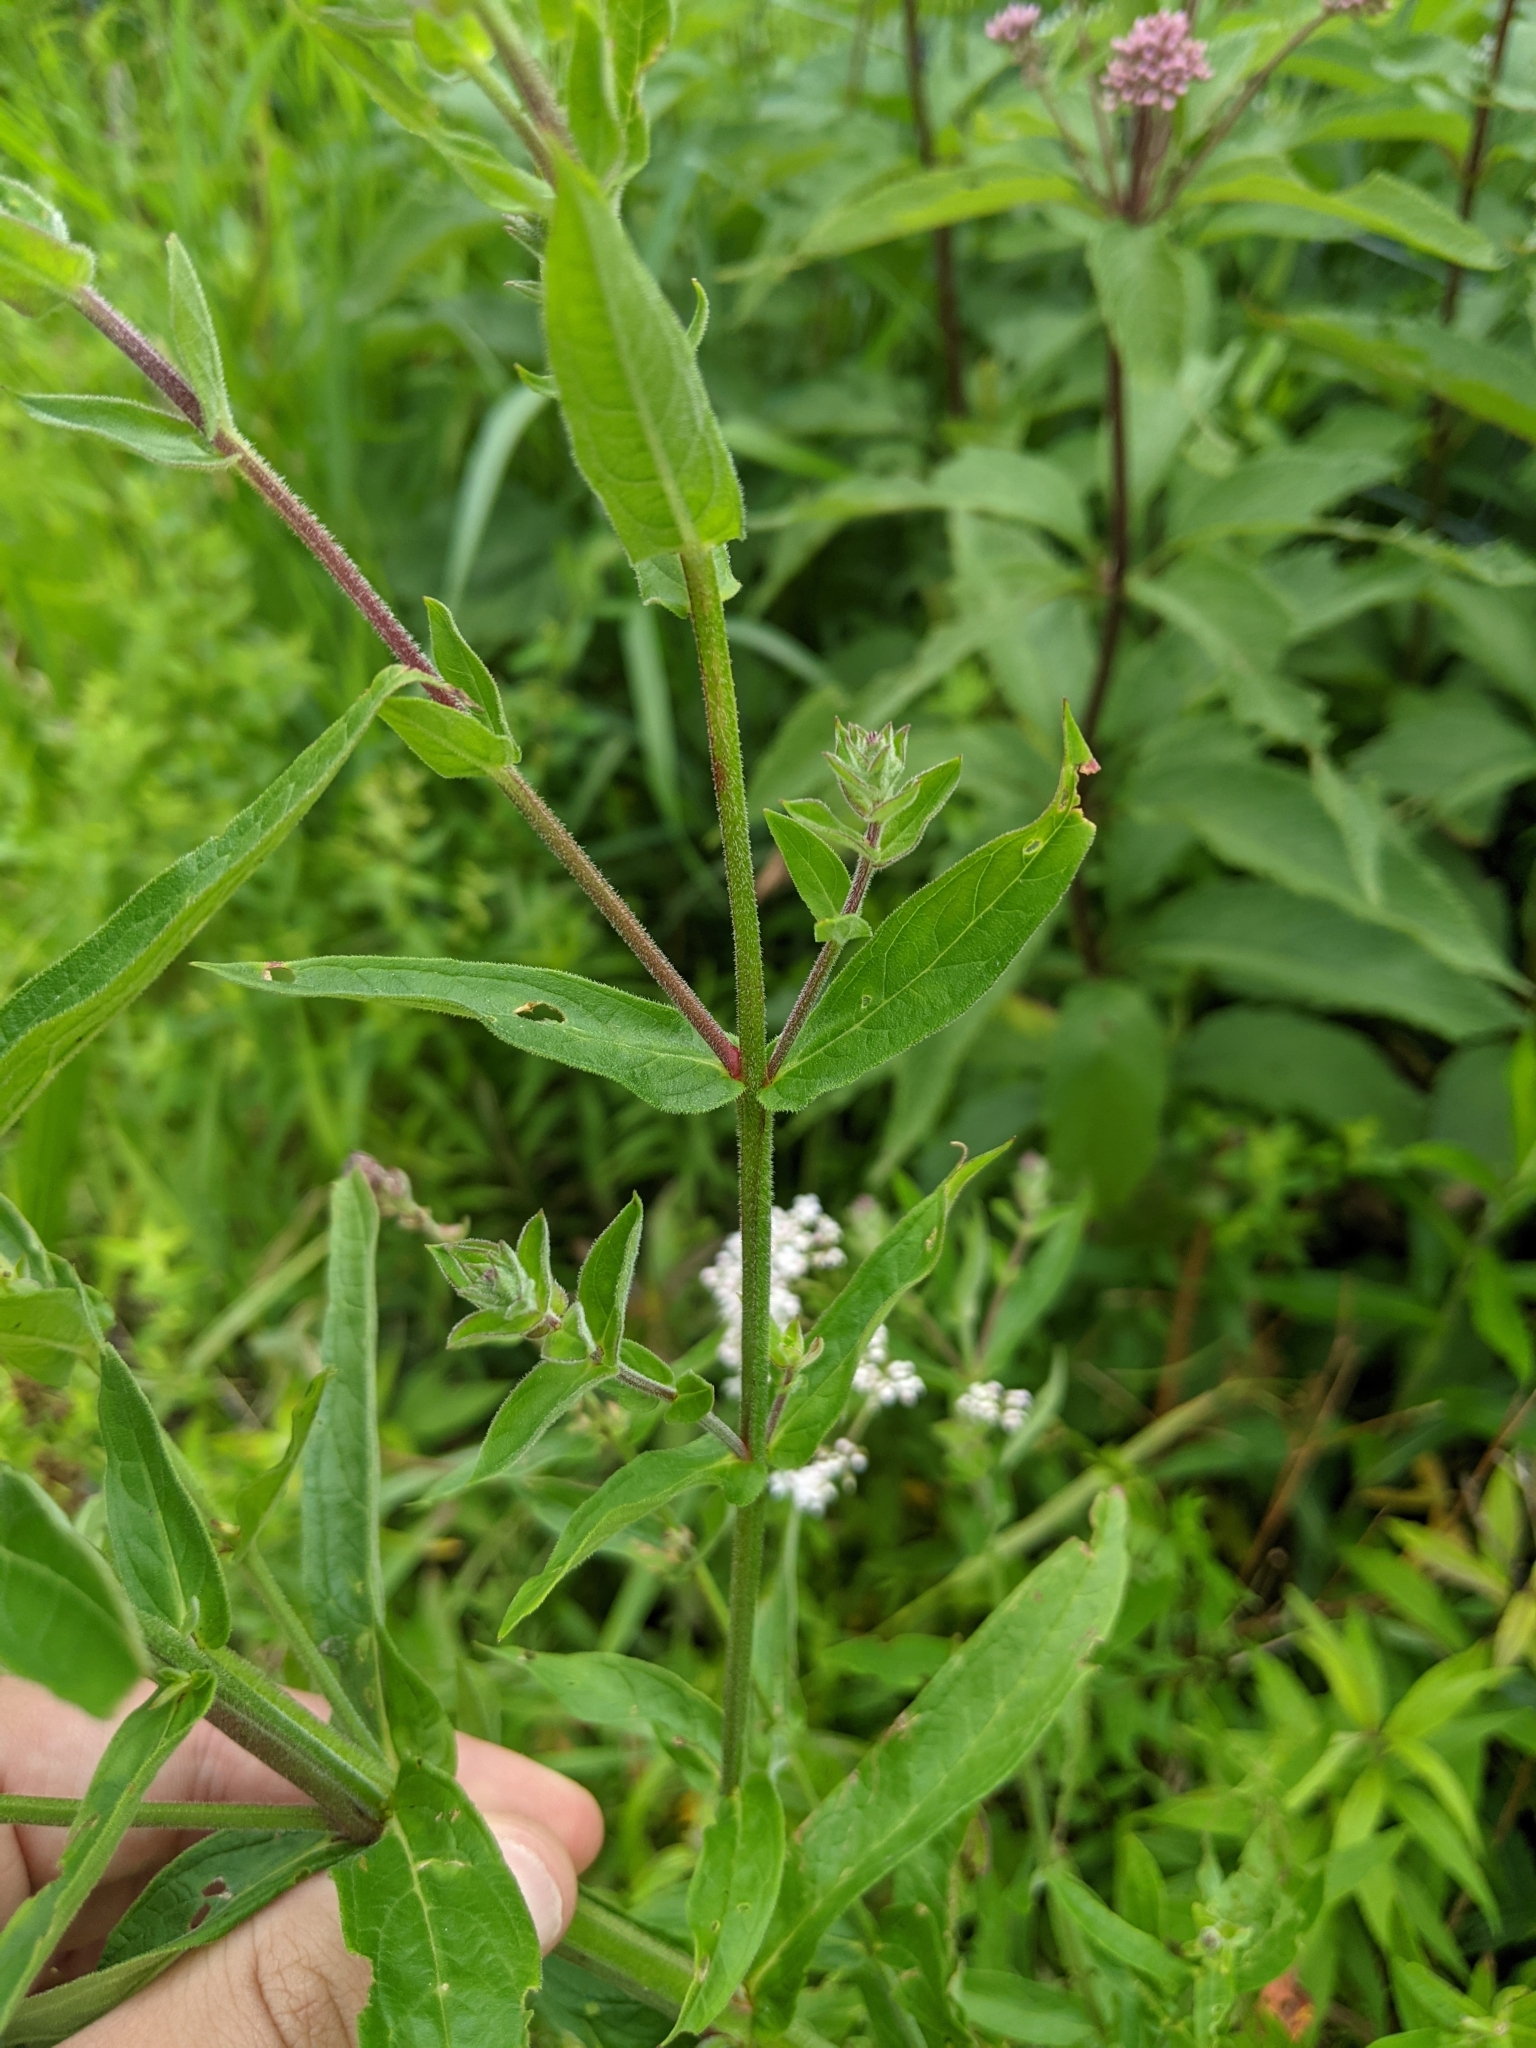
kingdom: Plantae
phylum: Tracheophyta
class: Magnoliopsida
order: Myrtales
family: Lythraceae
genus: Lythrum
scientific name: Lythrum salicaria
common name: Purple loosestrife
